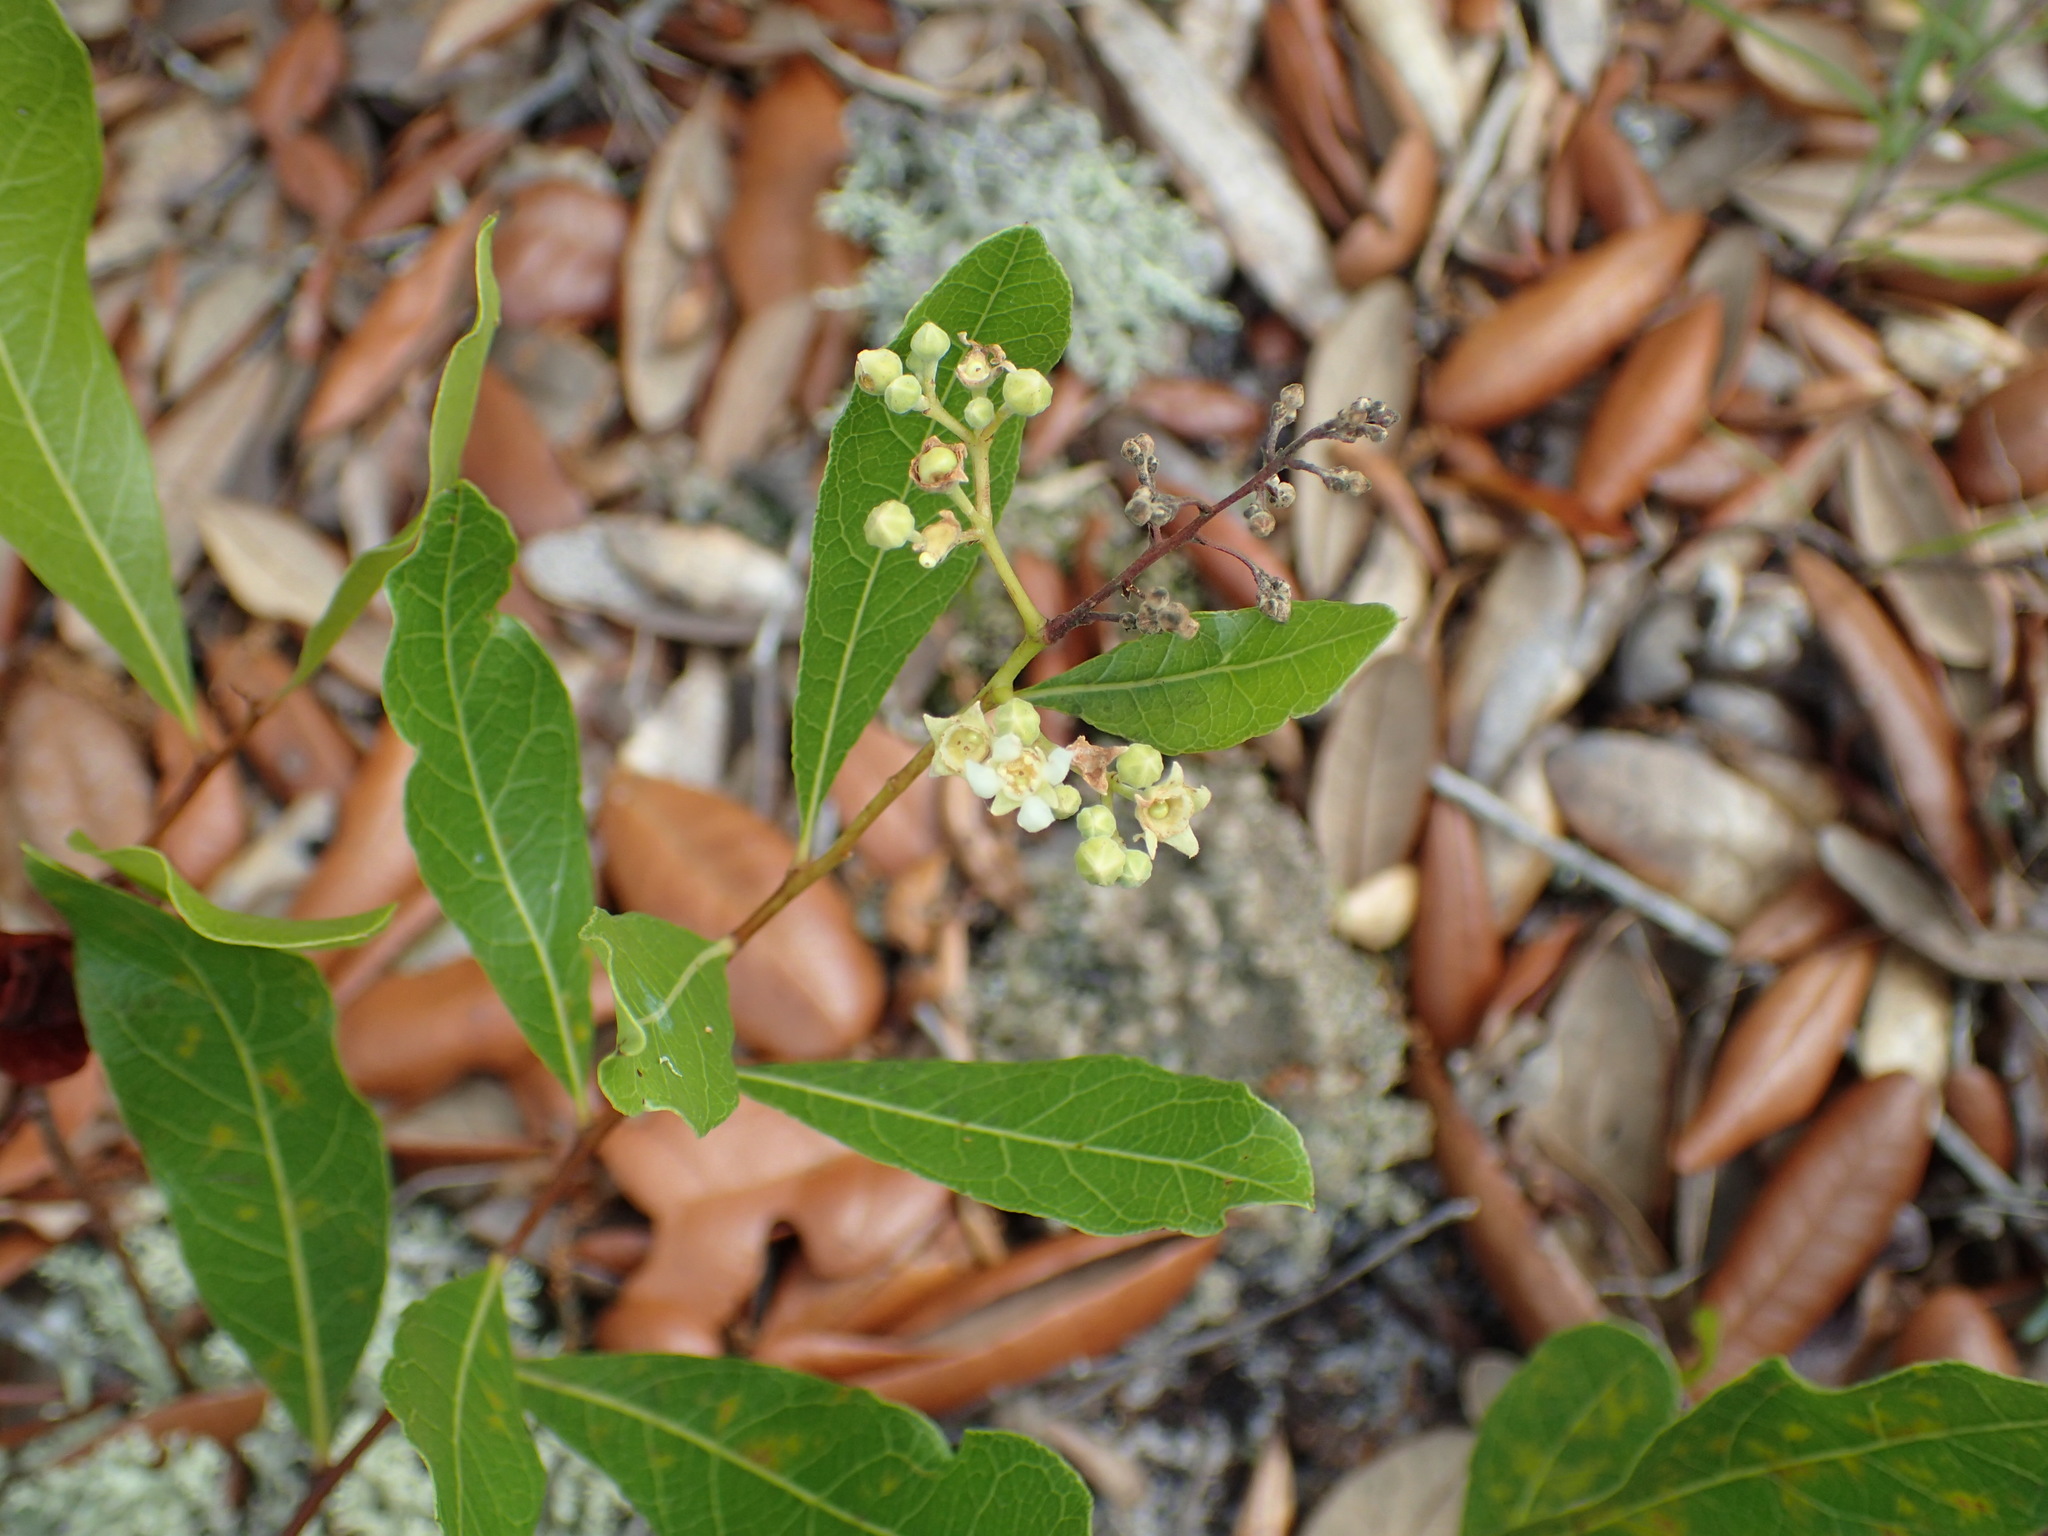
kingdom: Plantae
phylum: Tracheophyta
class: Magnoliopsida
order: Malpighiales
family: Chrysobalanaceae
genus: Geobalanus
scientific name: Geobalanus oblongifolius
